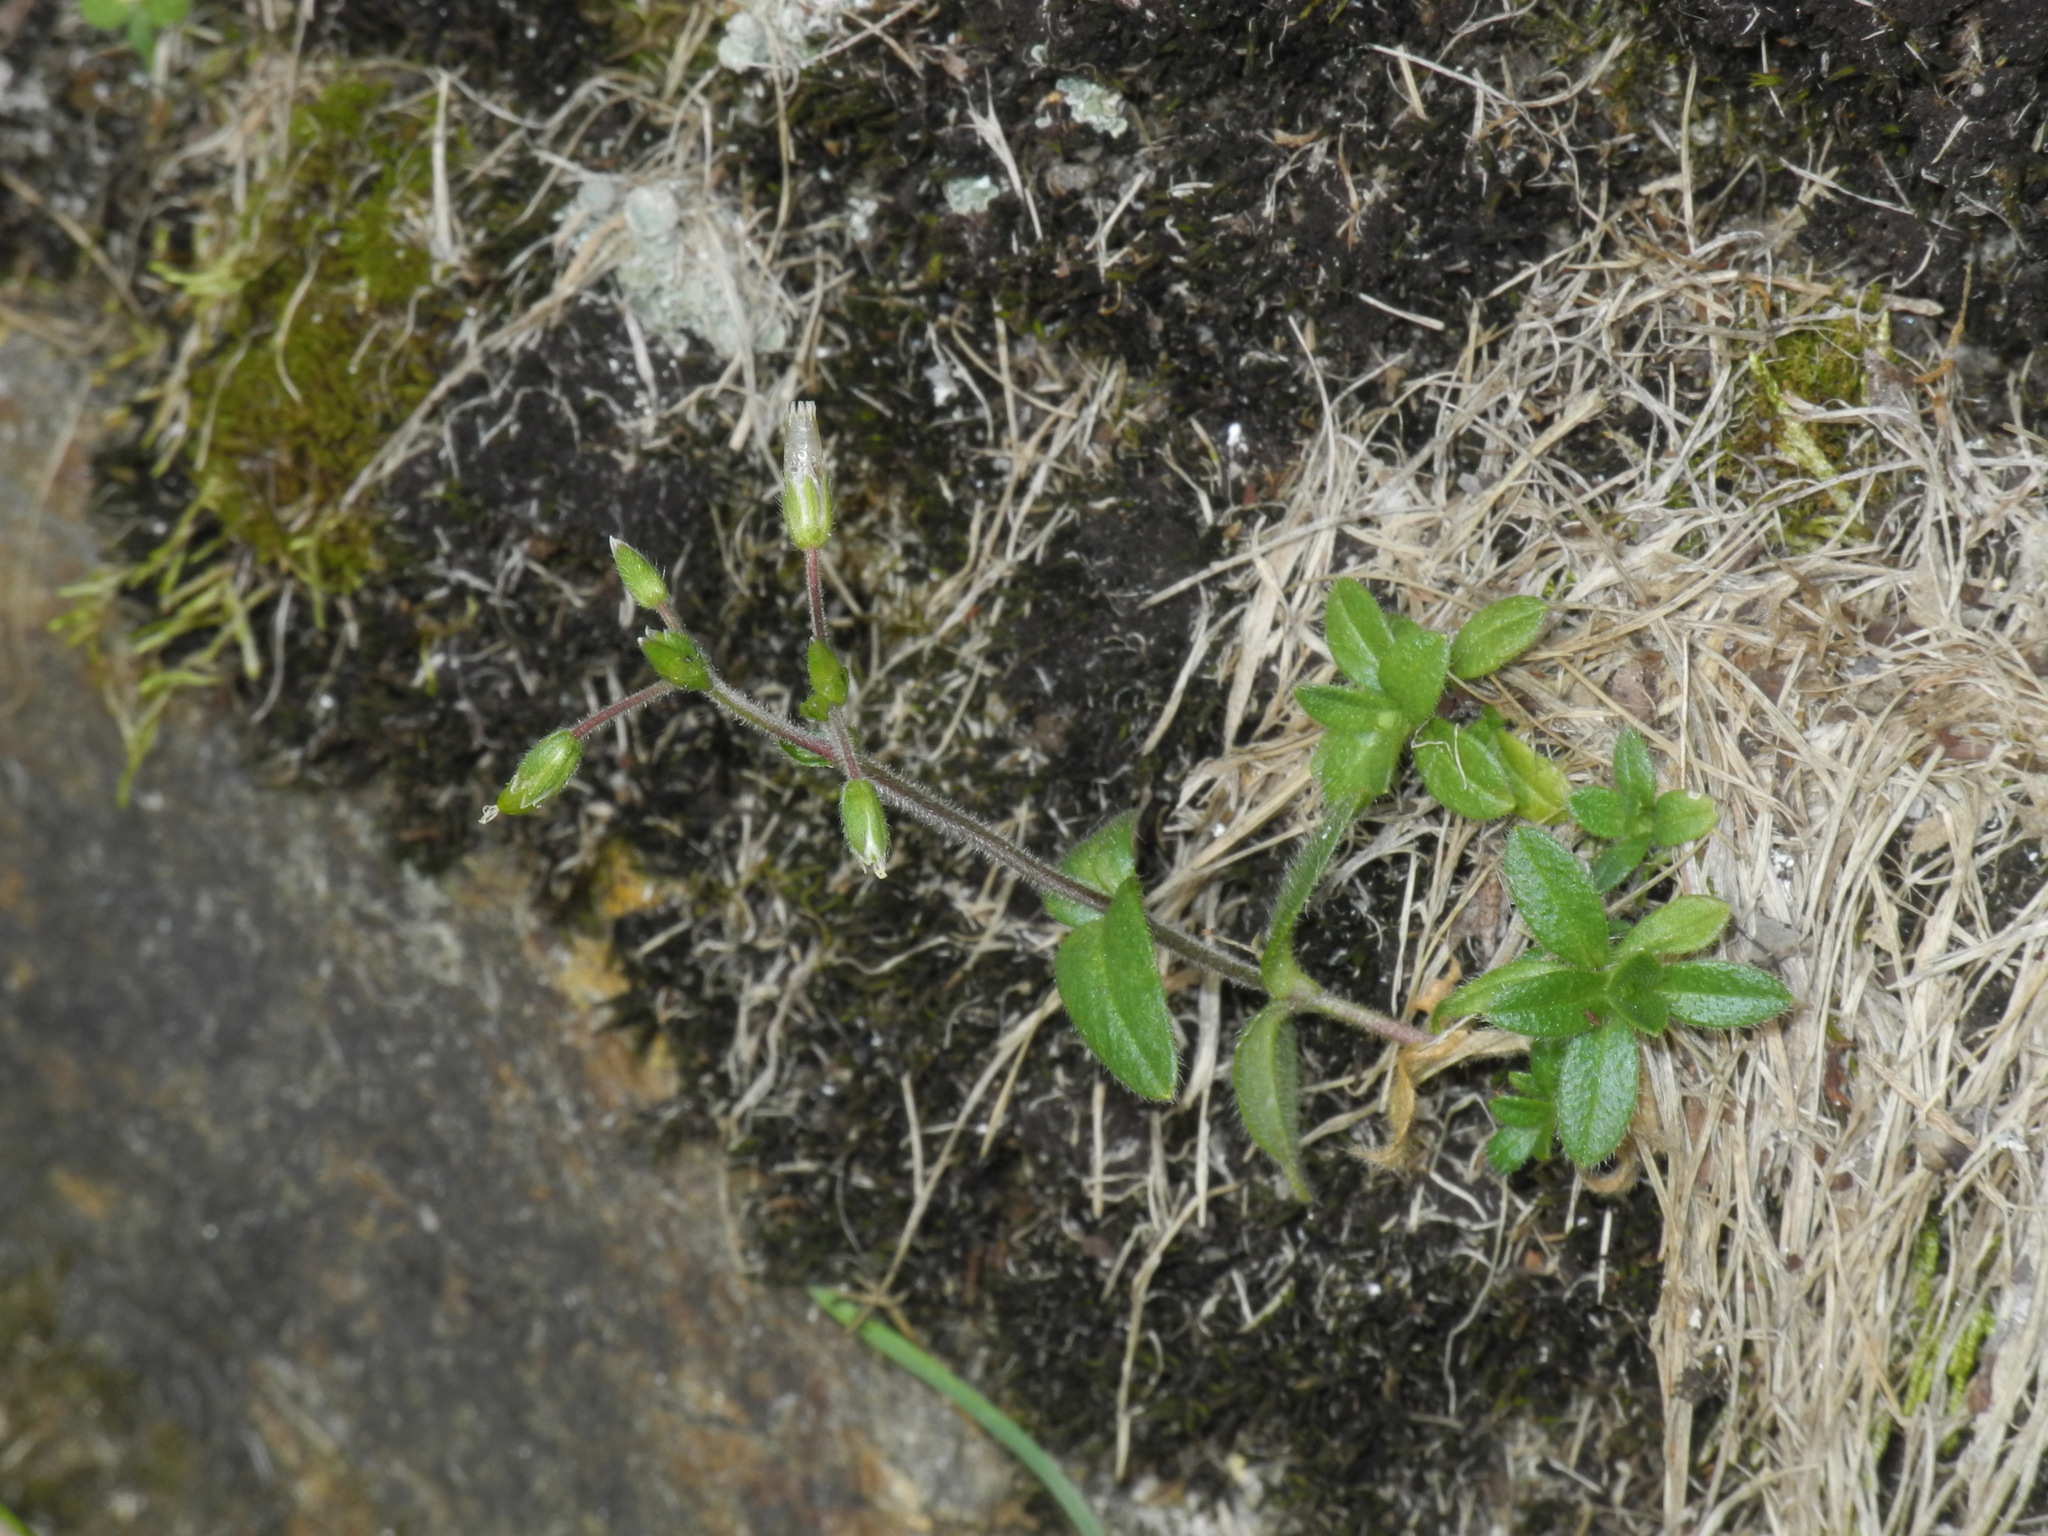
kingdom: Plantae
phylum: Tracheophyta
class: Magnoliopsida
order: Caryophyllales
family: Caryophyllaceae
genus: Cerastium
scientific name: Cerastium fontanum
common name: Common mouse-ear
